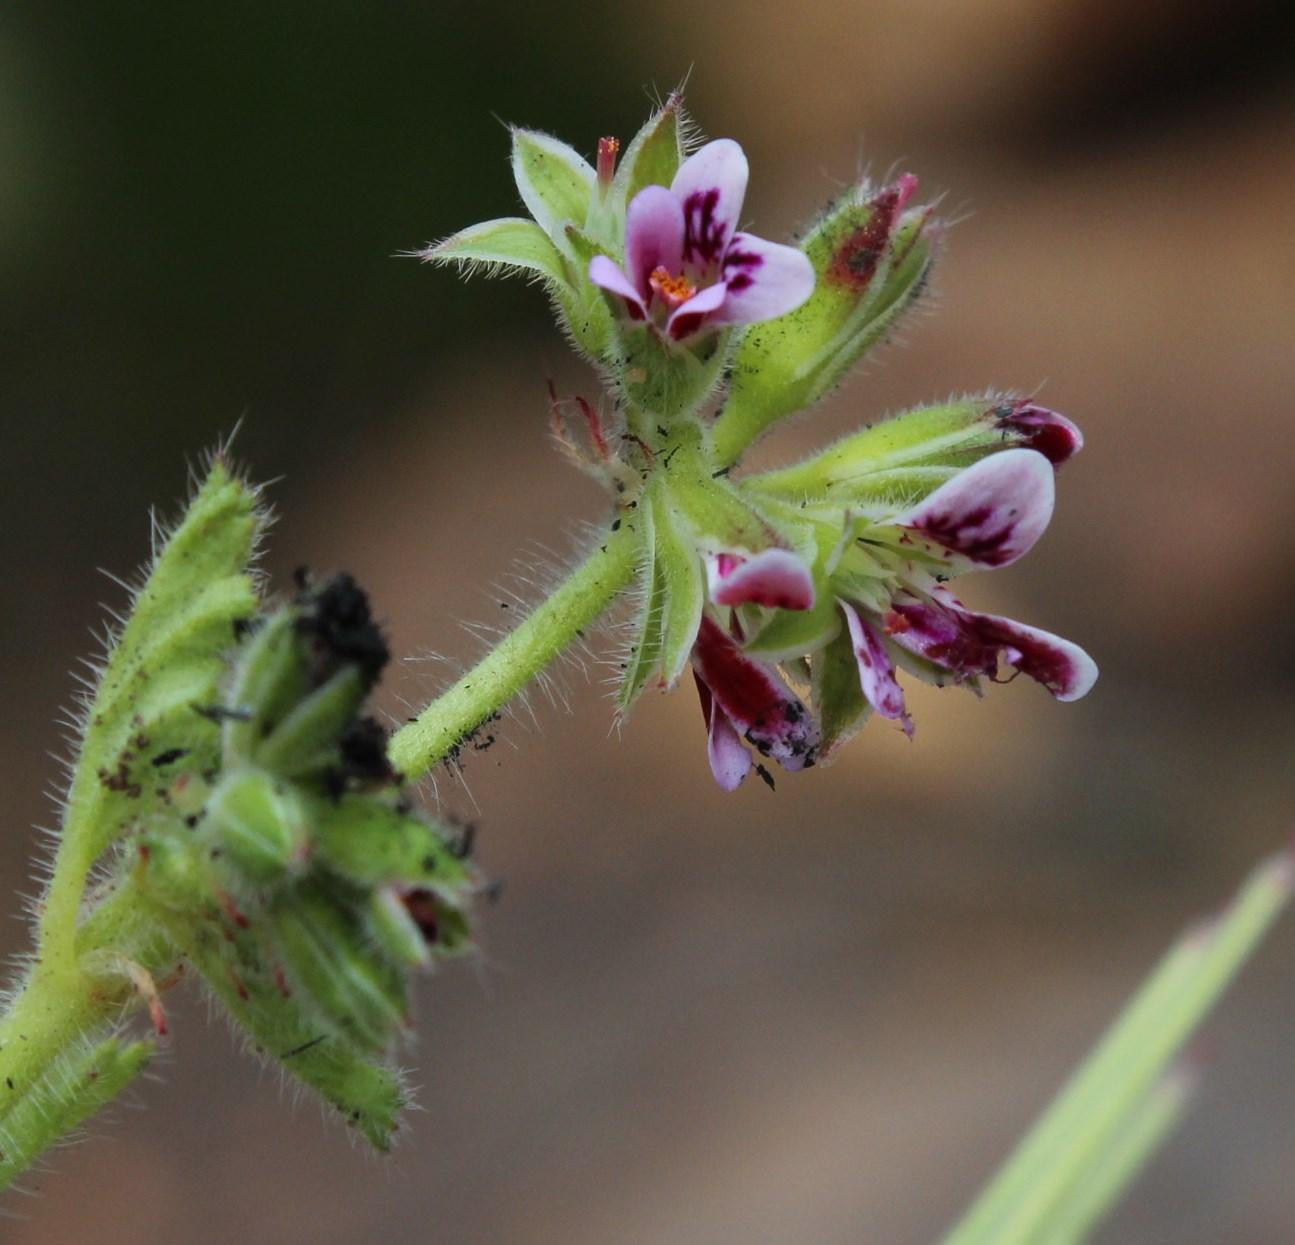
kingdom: Plantae
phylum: Tracheophyta
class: Magnoliopsida
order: Geraniales
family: Geraniaceae
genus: Pelargonium
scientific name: Pelargonium althaeoides
